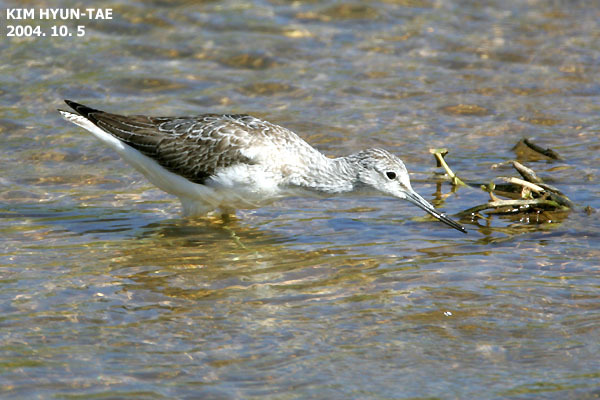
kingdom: Animalia
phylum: Chordata
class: Aves
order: Charadriiformes
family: Scolopacidae
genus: Tringa
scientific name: Tringa nebularia
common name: Common greenshank
